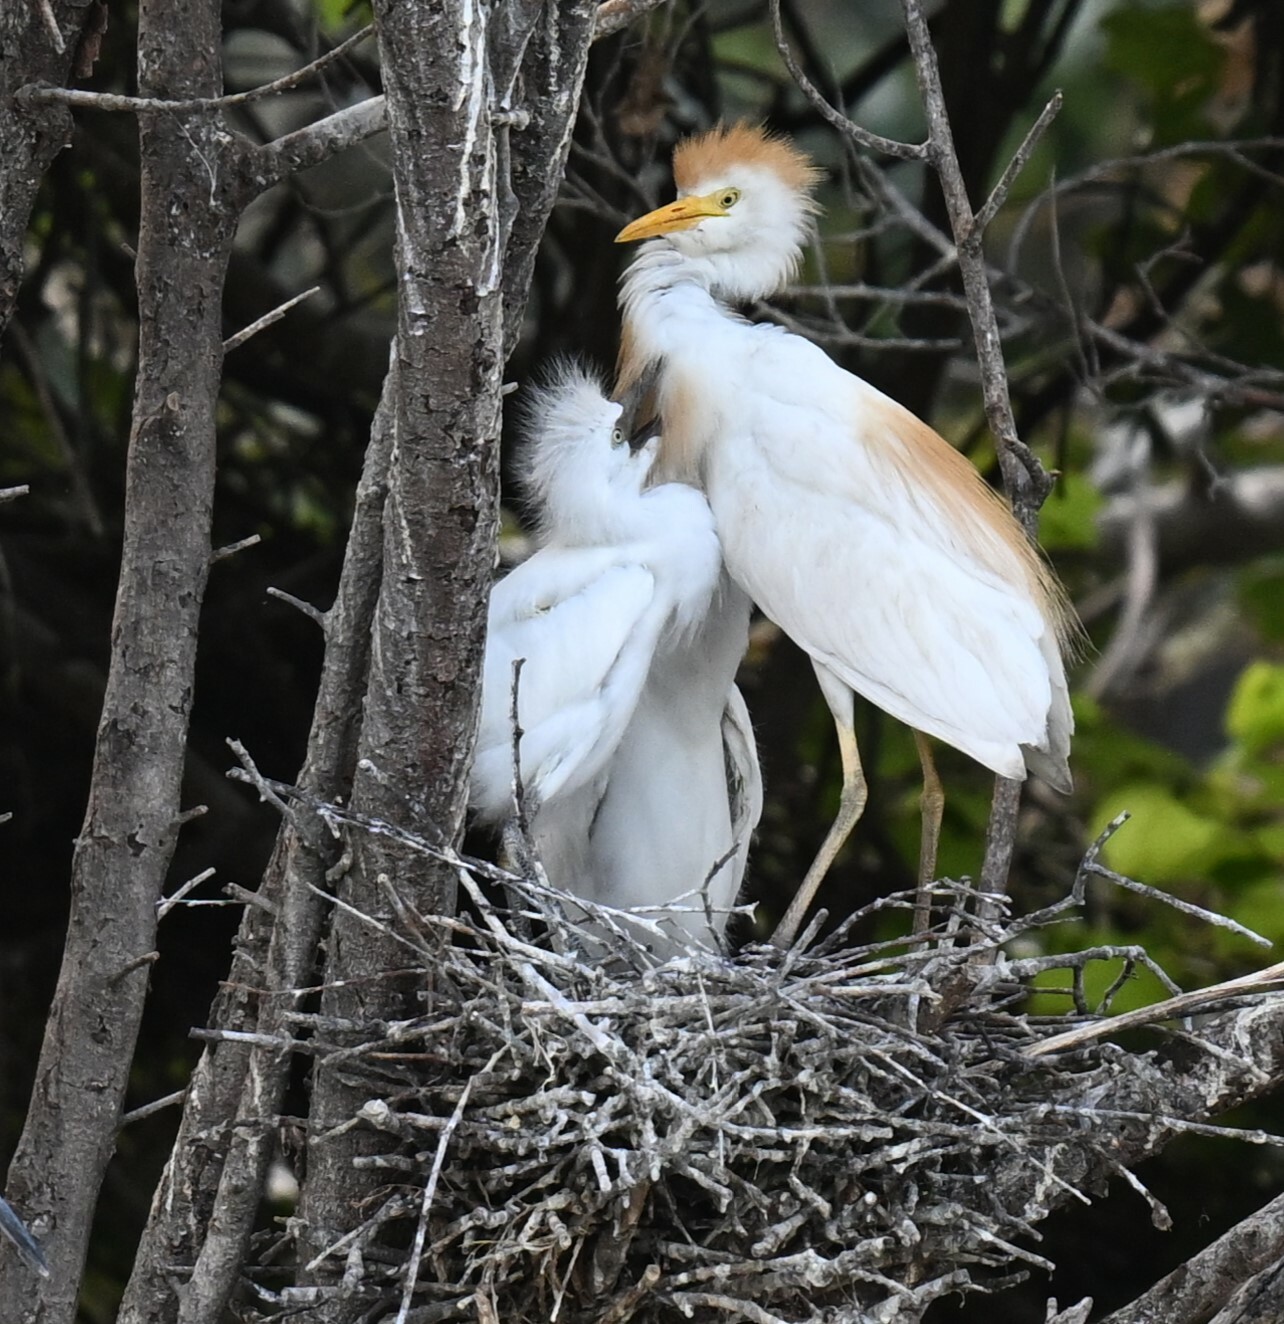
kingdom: Animalia
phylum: Chordata
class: Aves
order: Pelecaniformes
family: Ardeidae
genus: Bubulcus
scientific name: Bubulcus ibis
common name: Cattle egret
